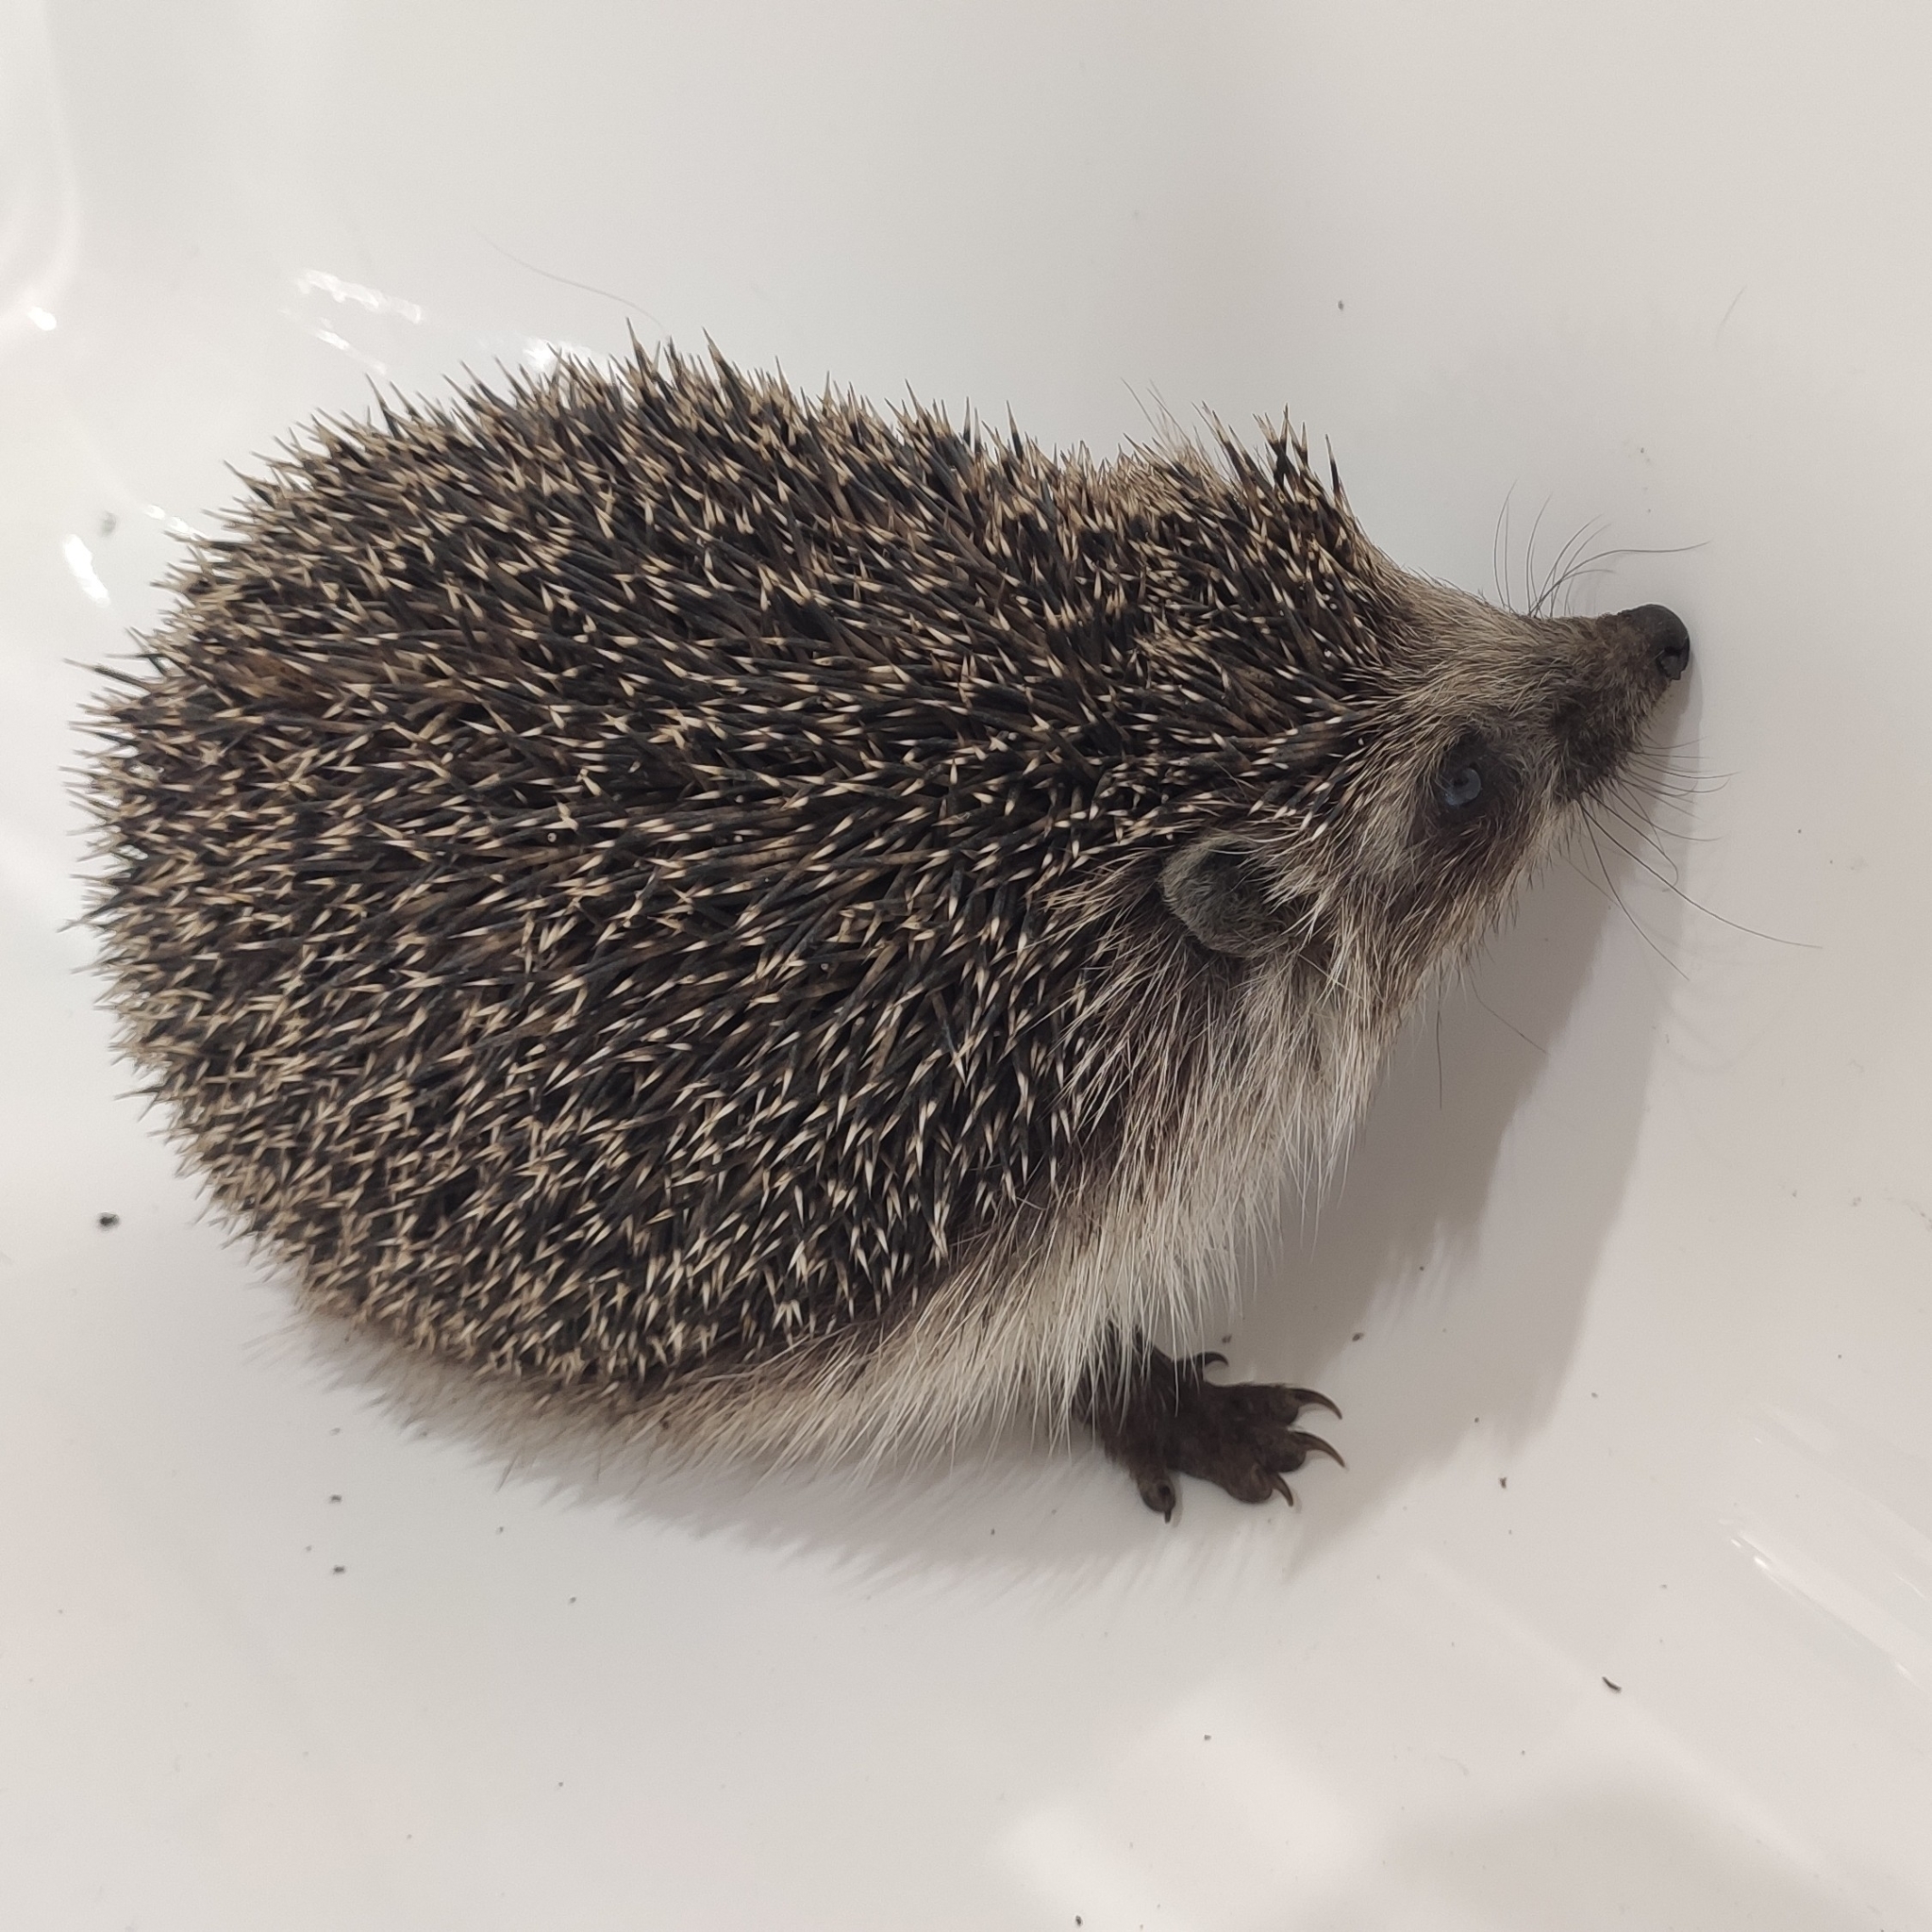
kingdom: Animalia
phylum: Chordata
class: Mammalia
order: Erinaceomorpha
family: Erinaceidae
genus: Erinaceus
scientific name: Erinaceus roumanicus
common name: Northern white-breasted hedgehog
